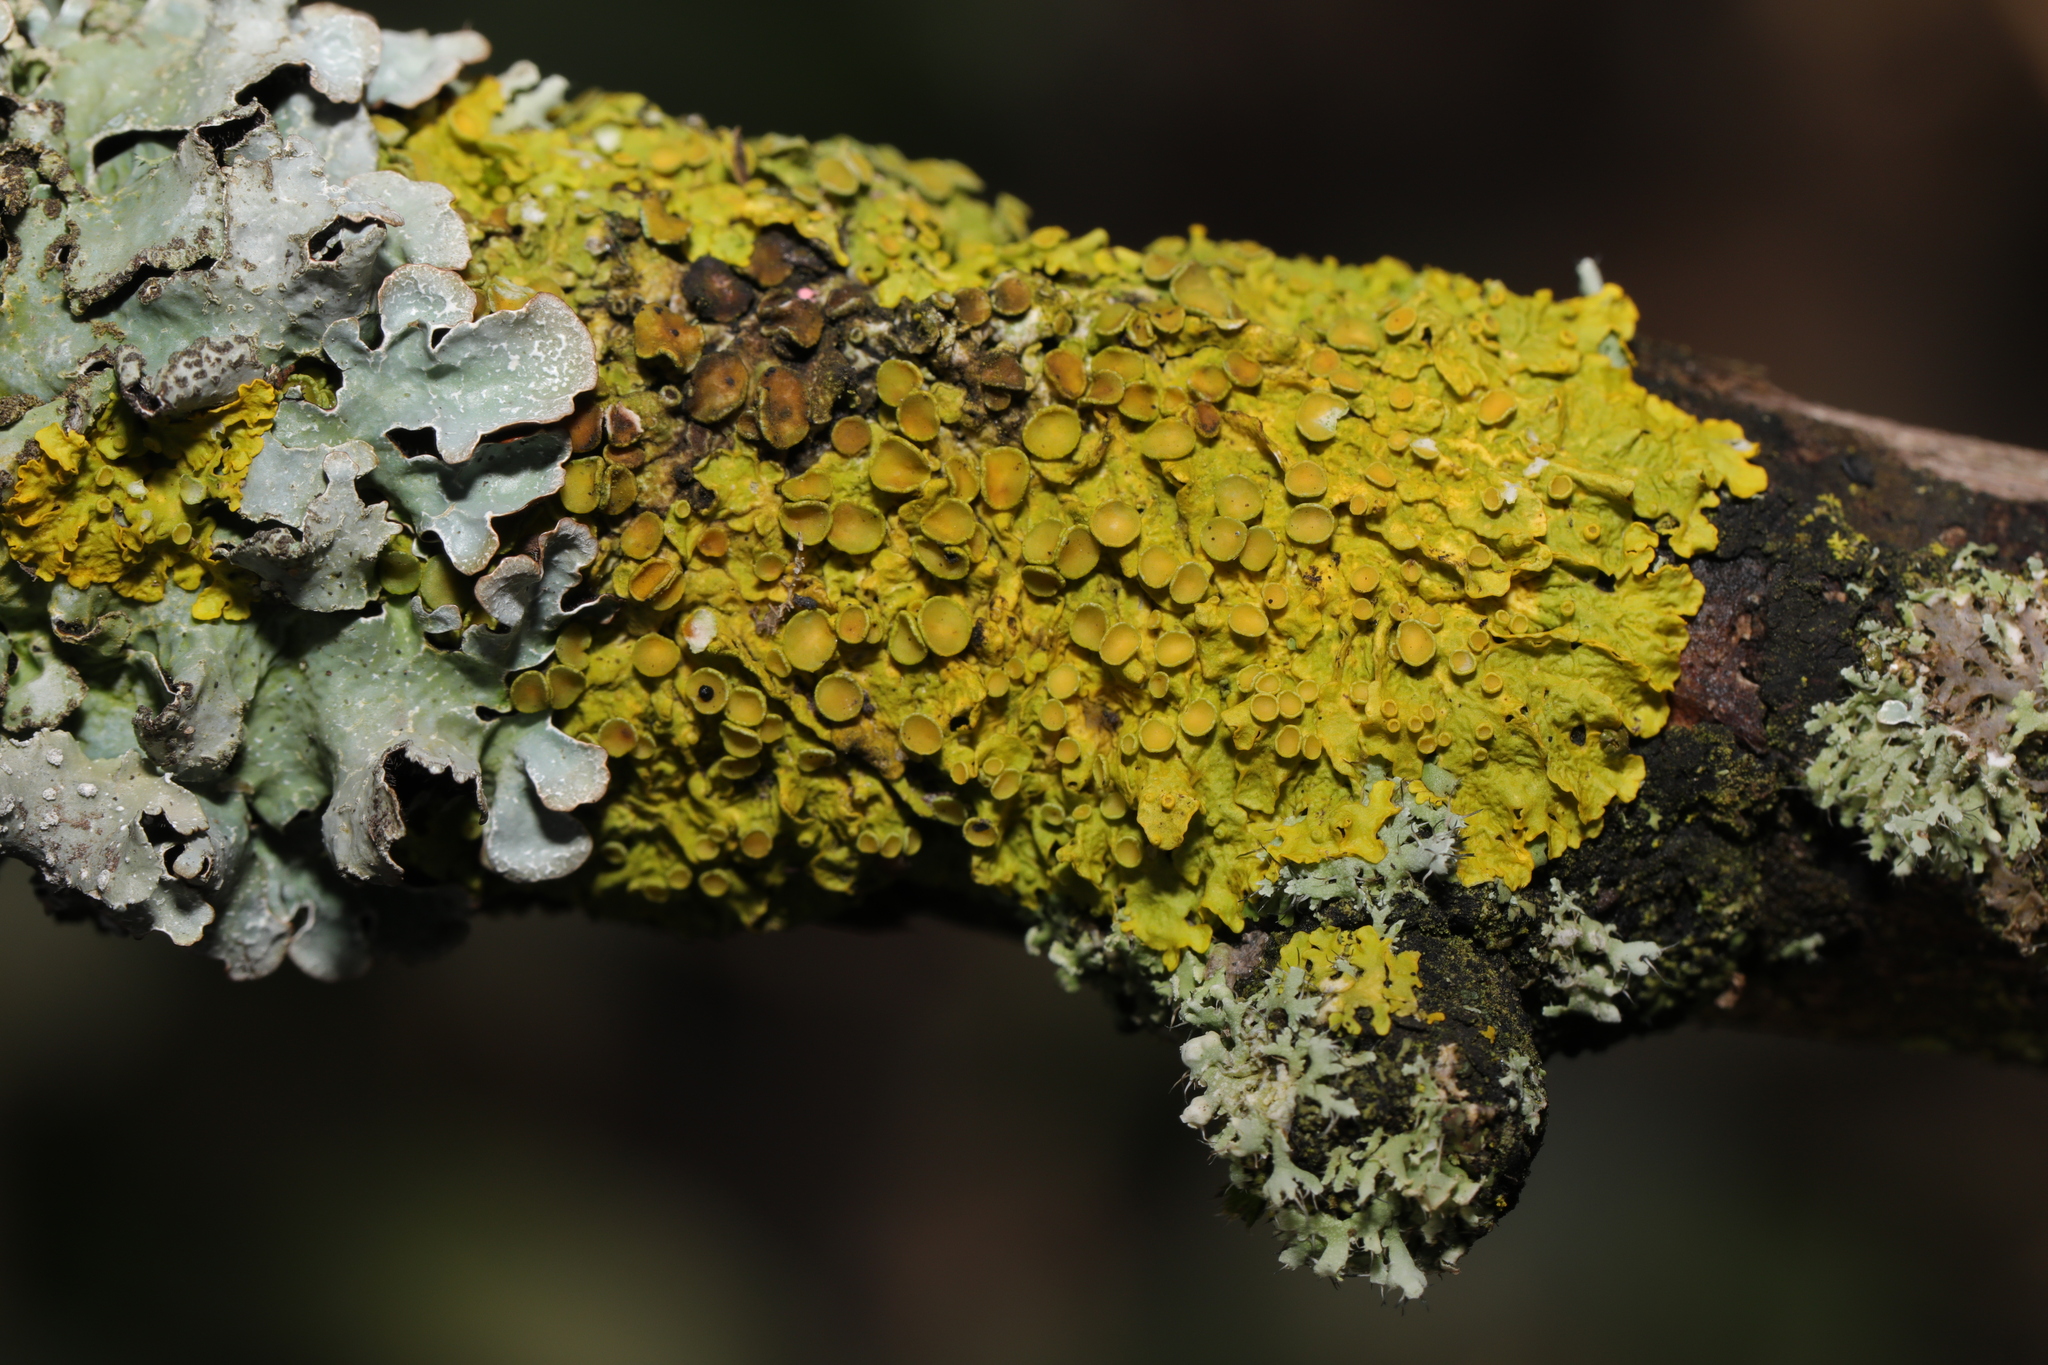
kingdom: Fungi
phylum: Ascomycota
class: Lecanoromycetes
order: Teloschistales
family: Teloschistaceae
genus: Xanthoria
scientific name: Xanthoria parietina
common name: Common orange lichen
